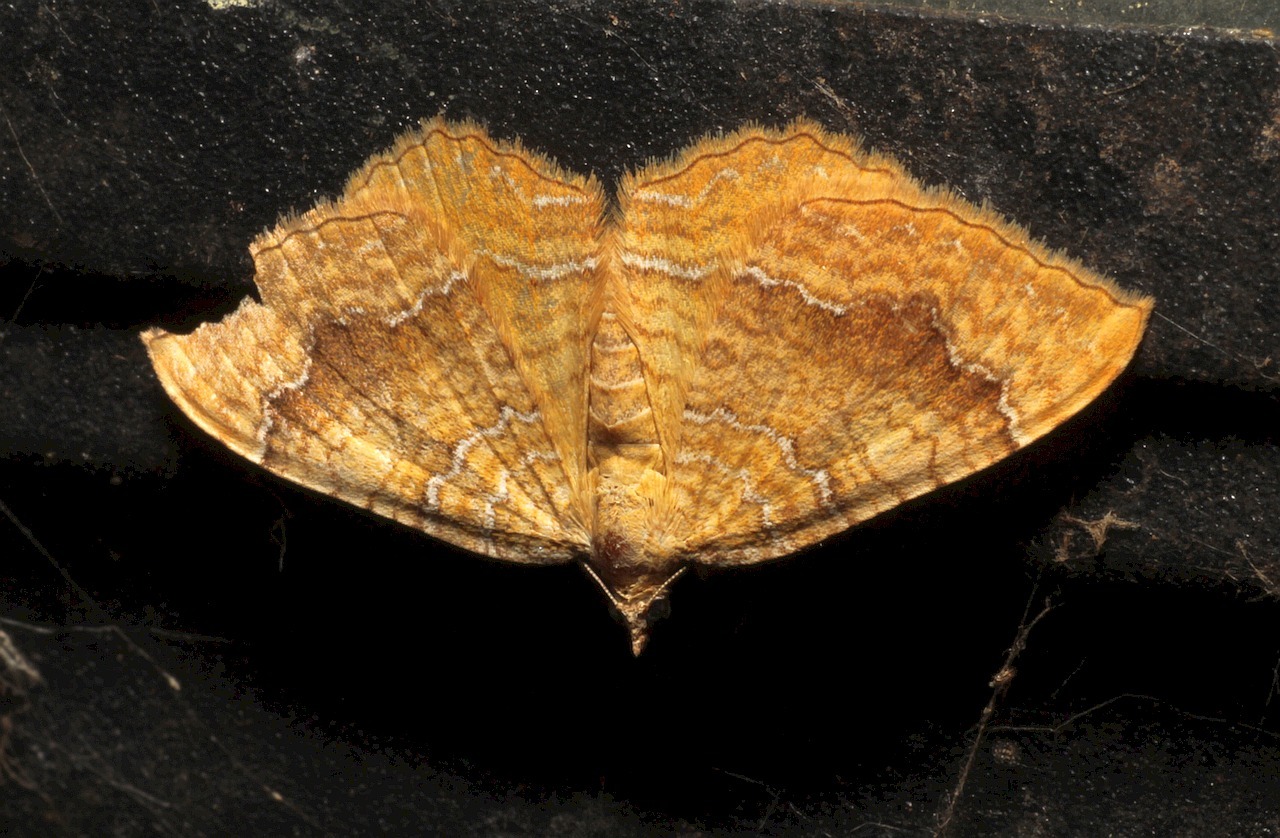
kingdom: Animalia
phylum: Arthropoda
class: Insecta
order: Lepidoptera
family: Geometridae
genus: Camptogramma
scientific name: Camptogramma bilineata
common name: Yellow shell
